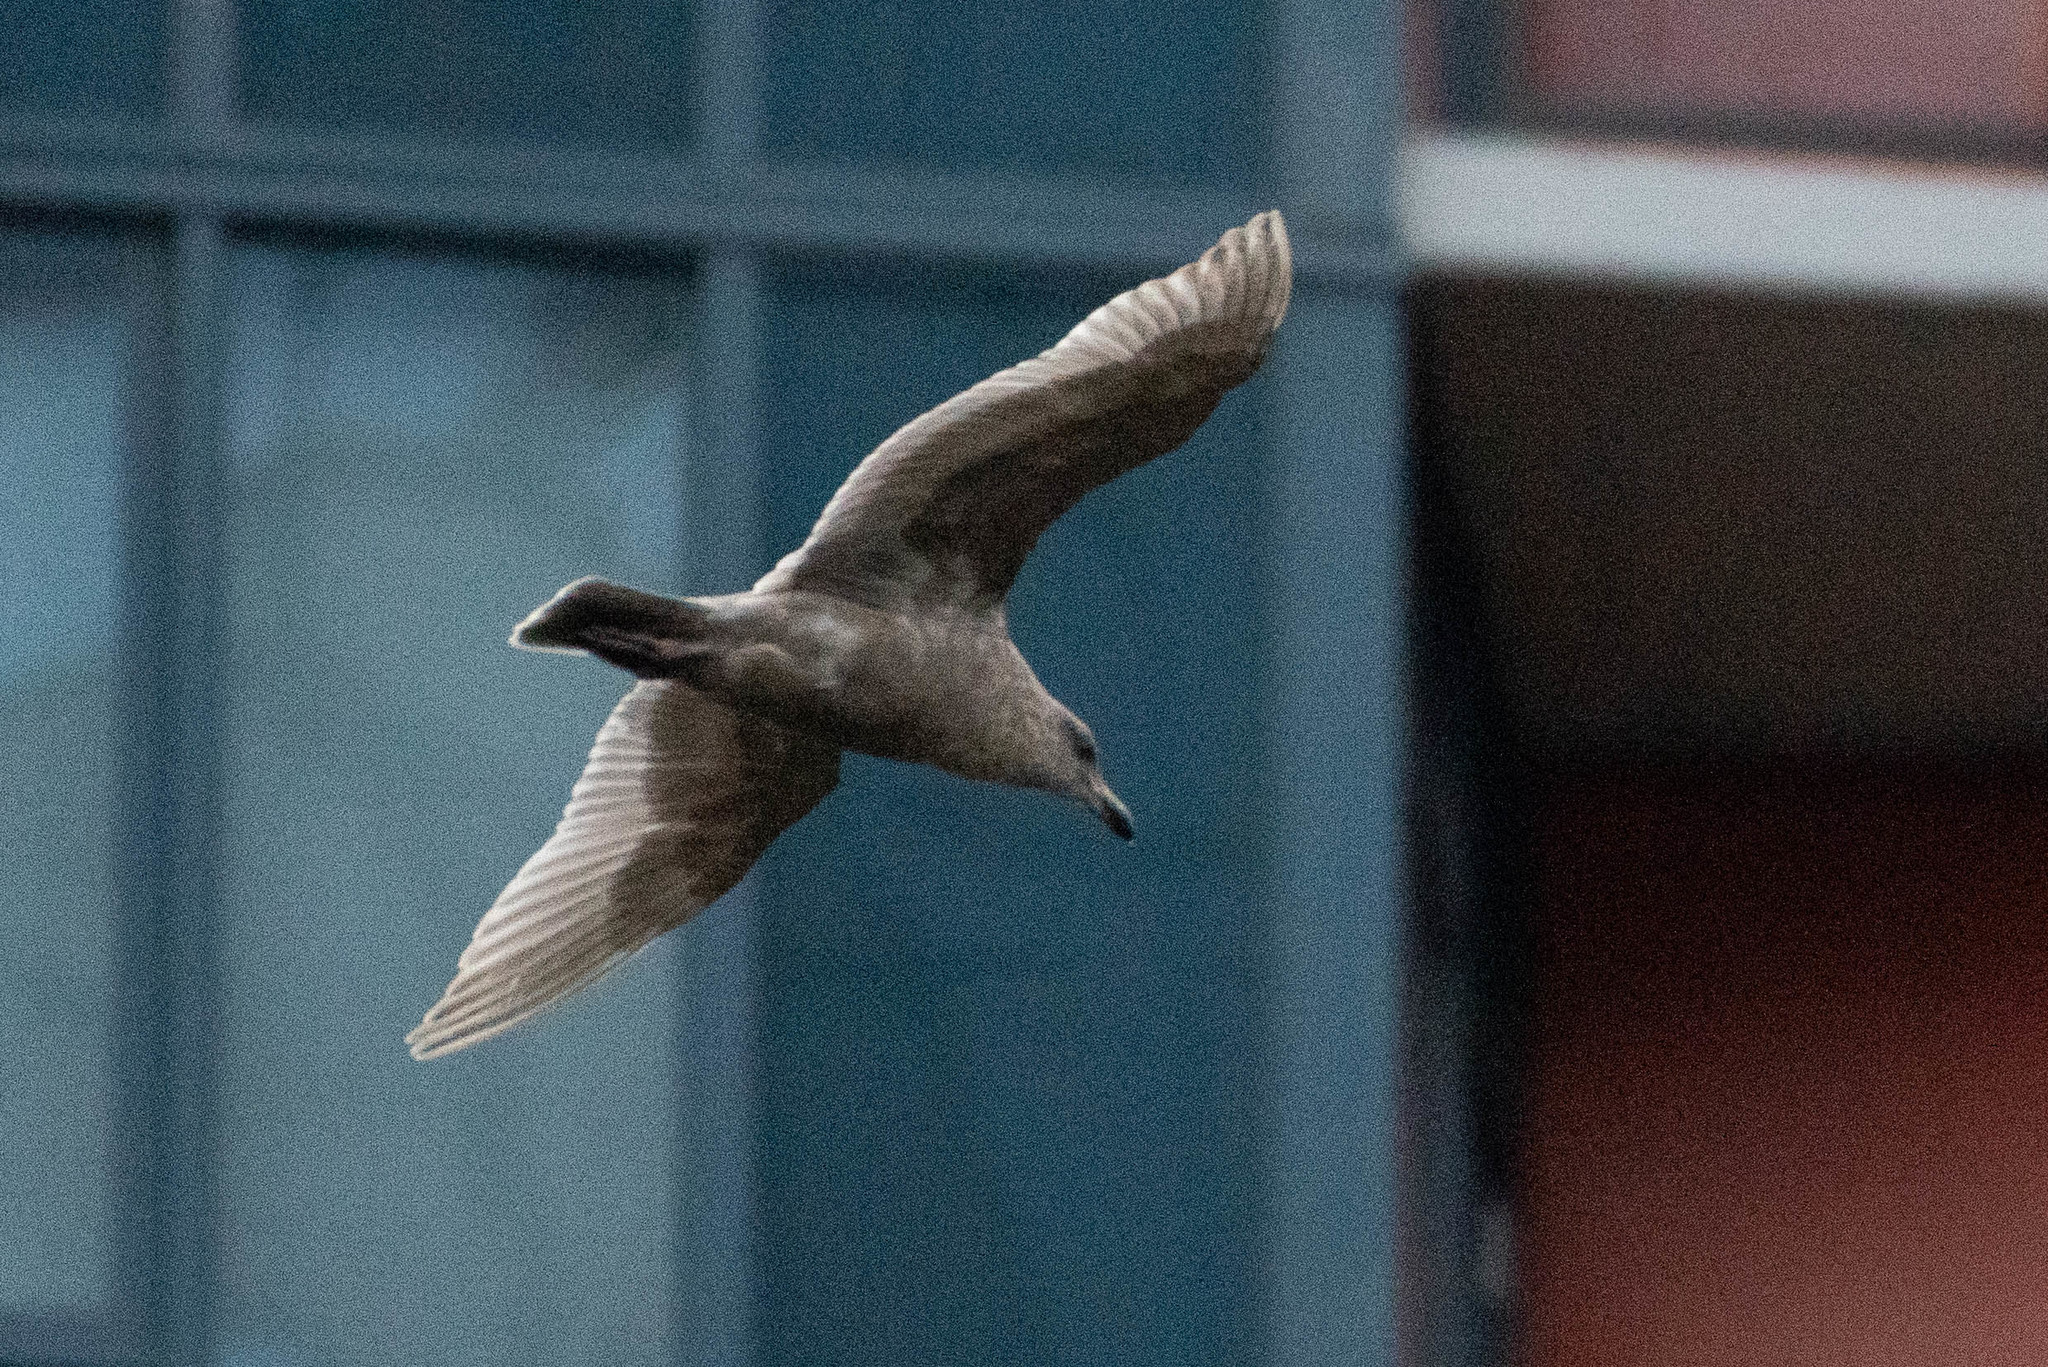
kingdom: Animalia
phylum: Chordata
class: Aves
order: Charadriiformes
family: Laridae
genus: Larus
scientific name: Larus glaucescens
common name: Glaucous-winged gull
